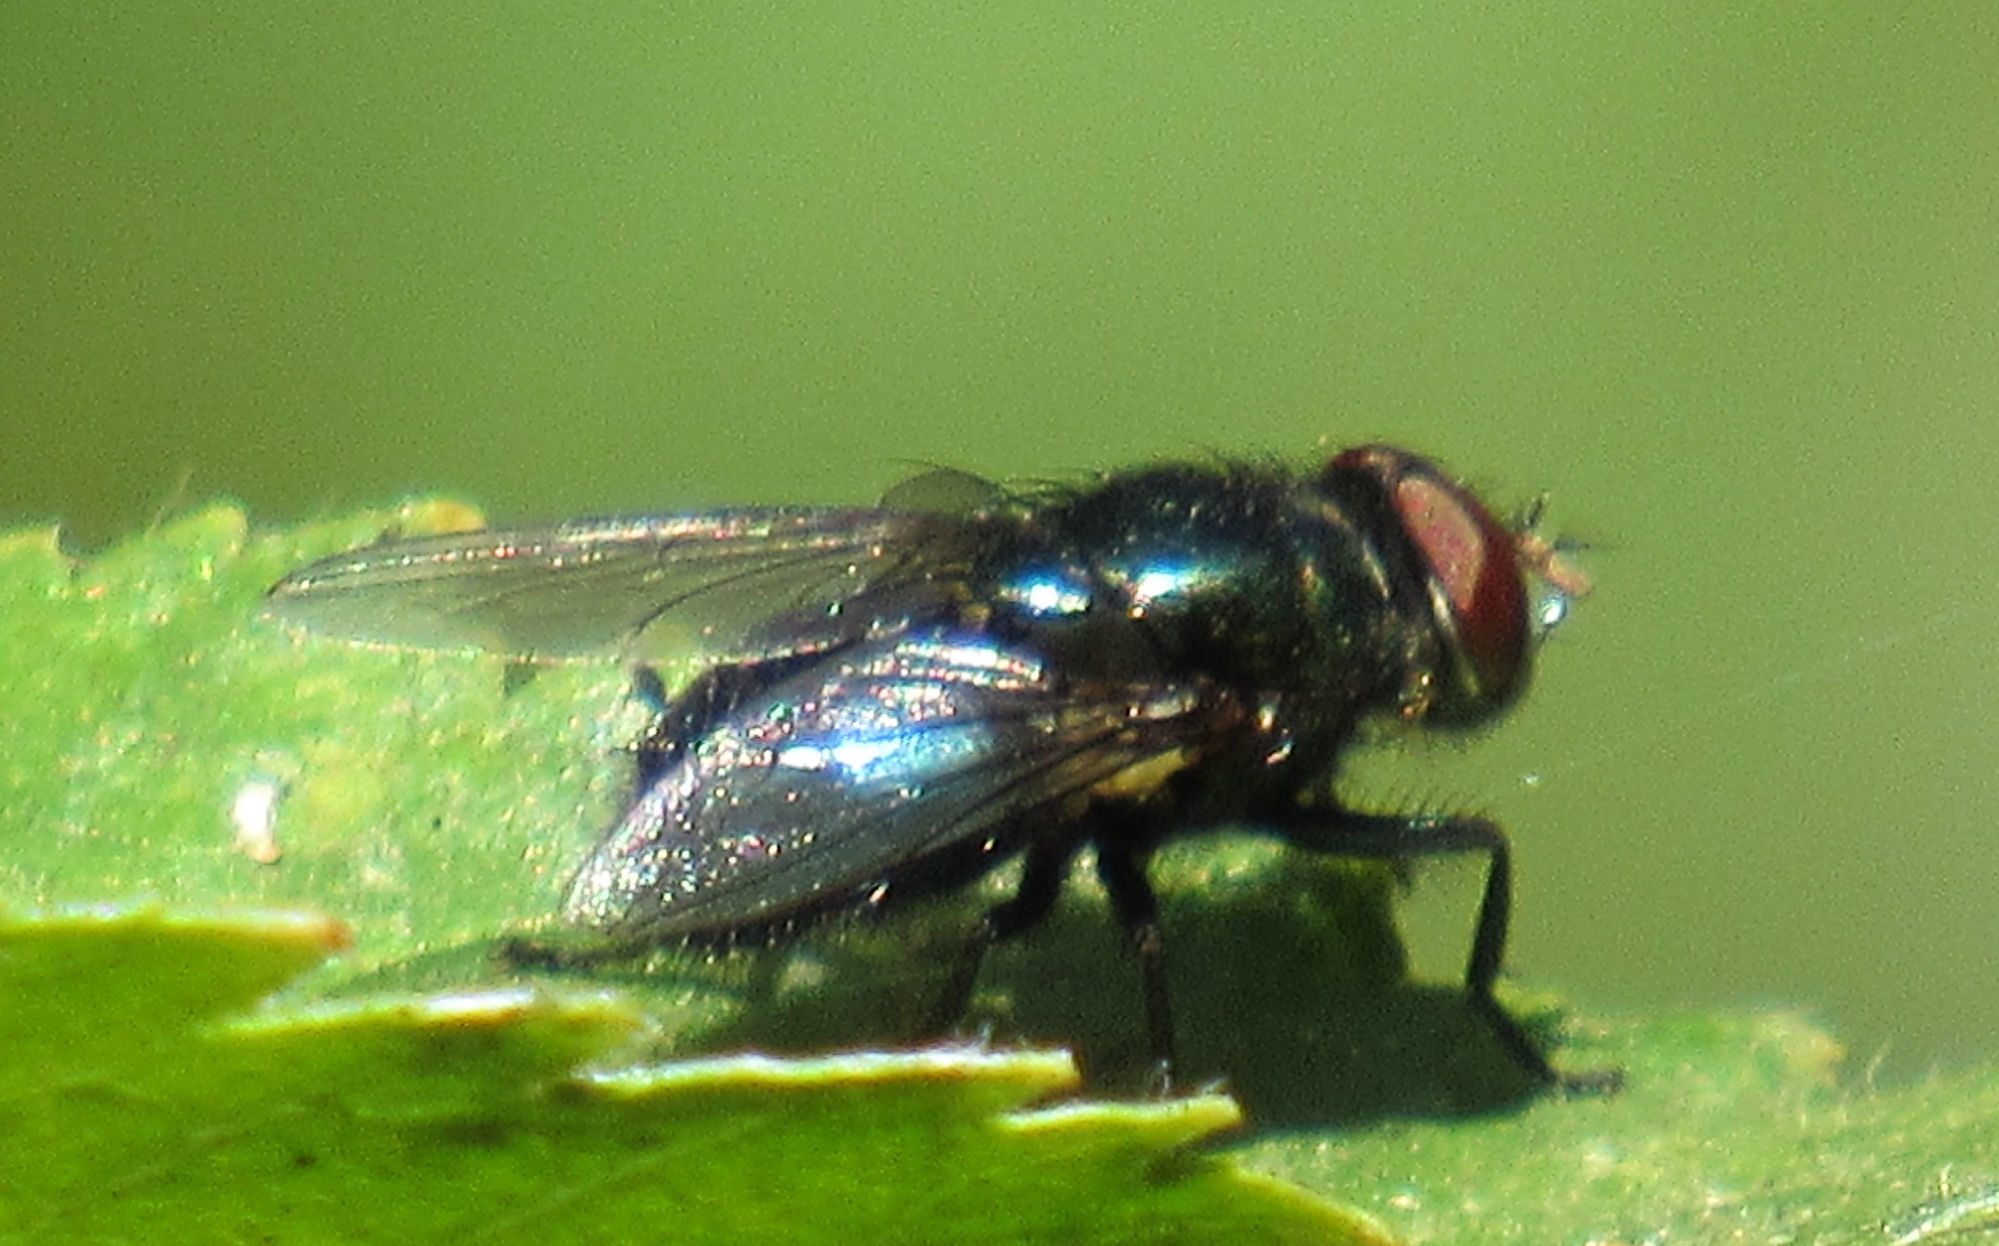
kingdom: Animalia
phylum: Arthropoda
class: Insecta
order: Diptera
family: Calliphoridae
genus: Phormia
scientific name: Phormia regina
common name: Black blow fly
